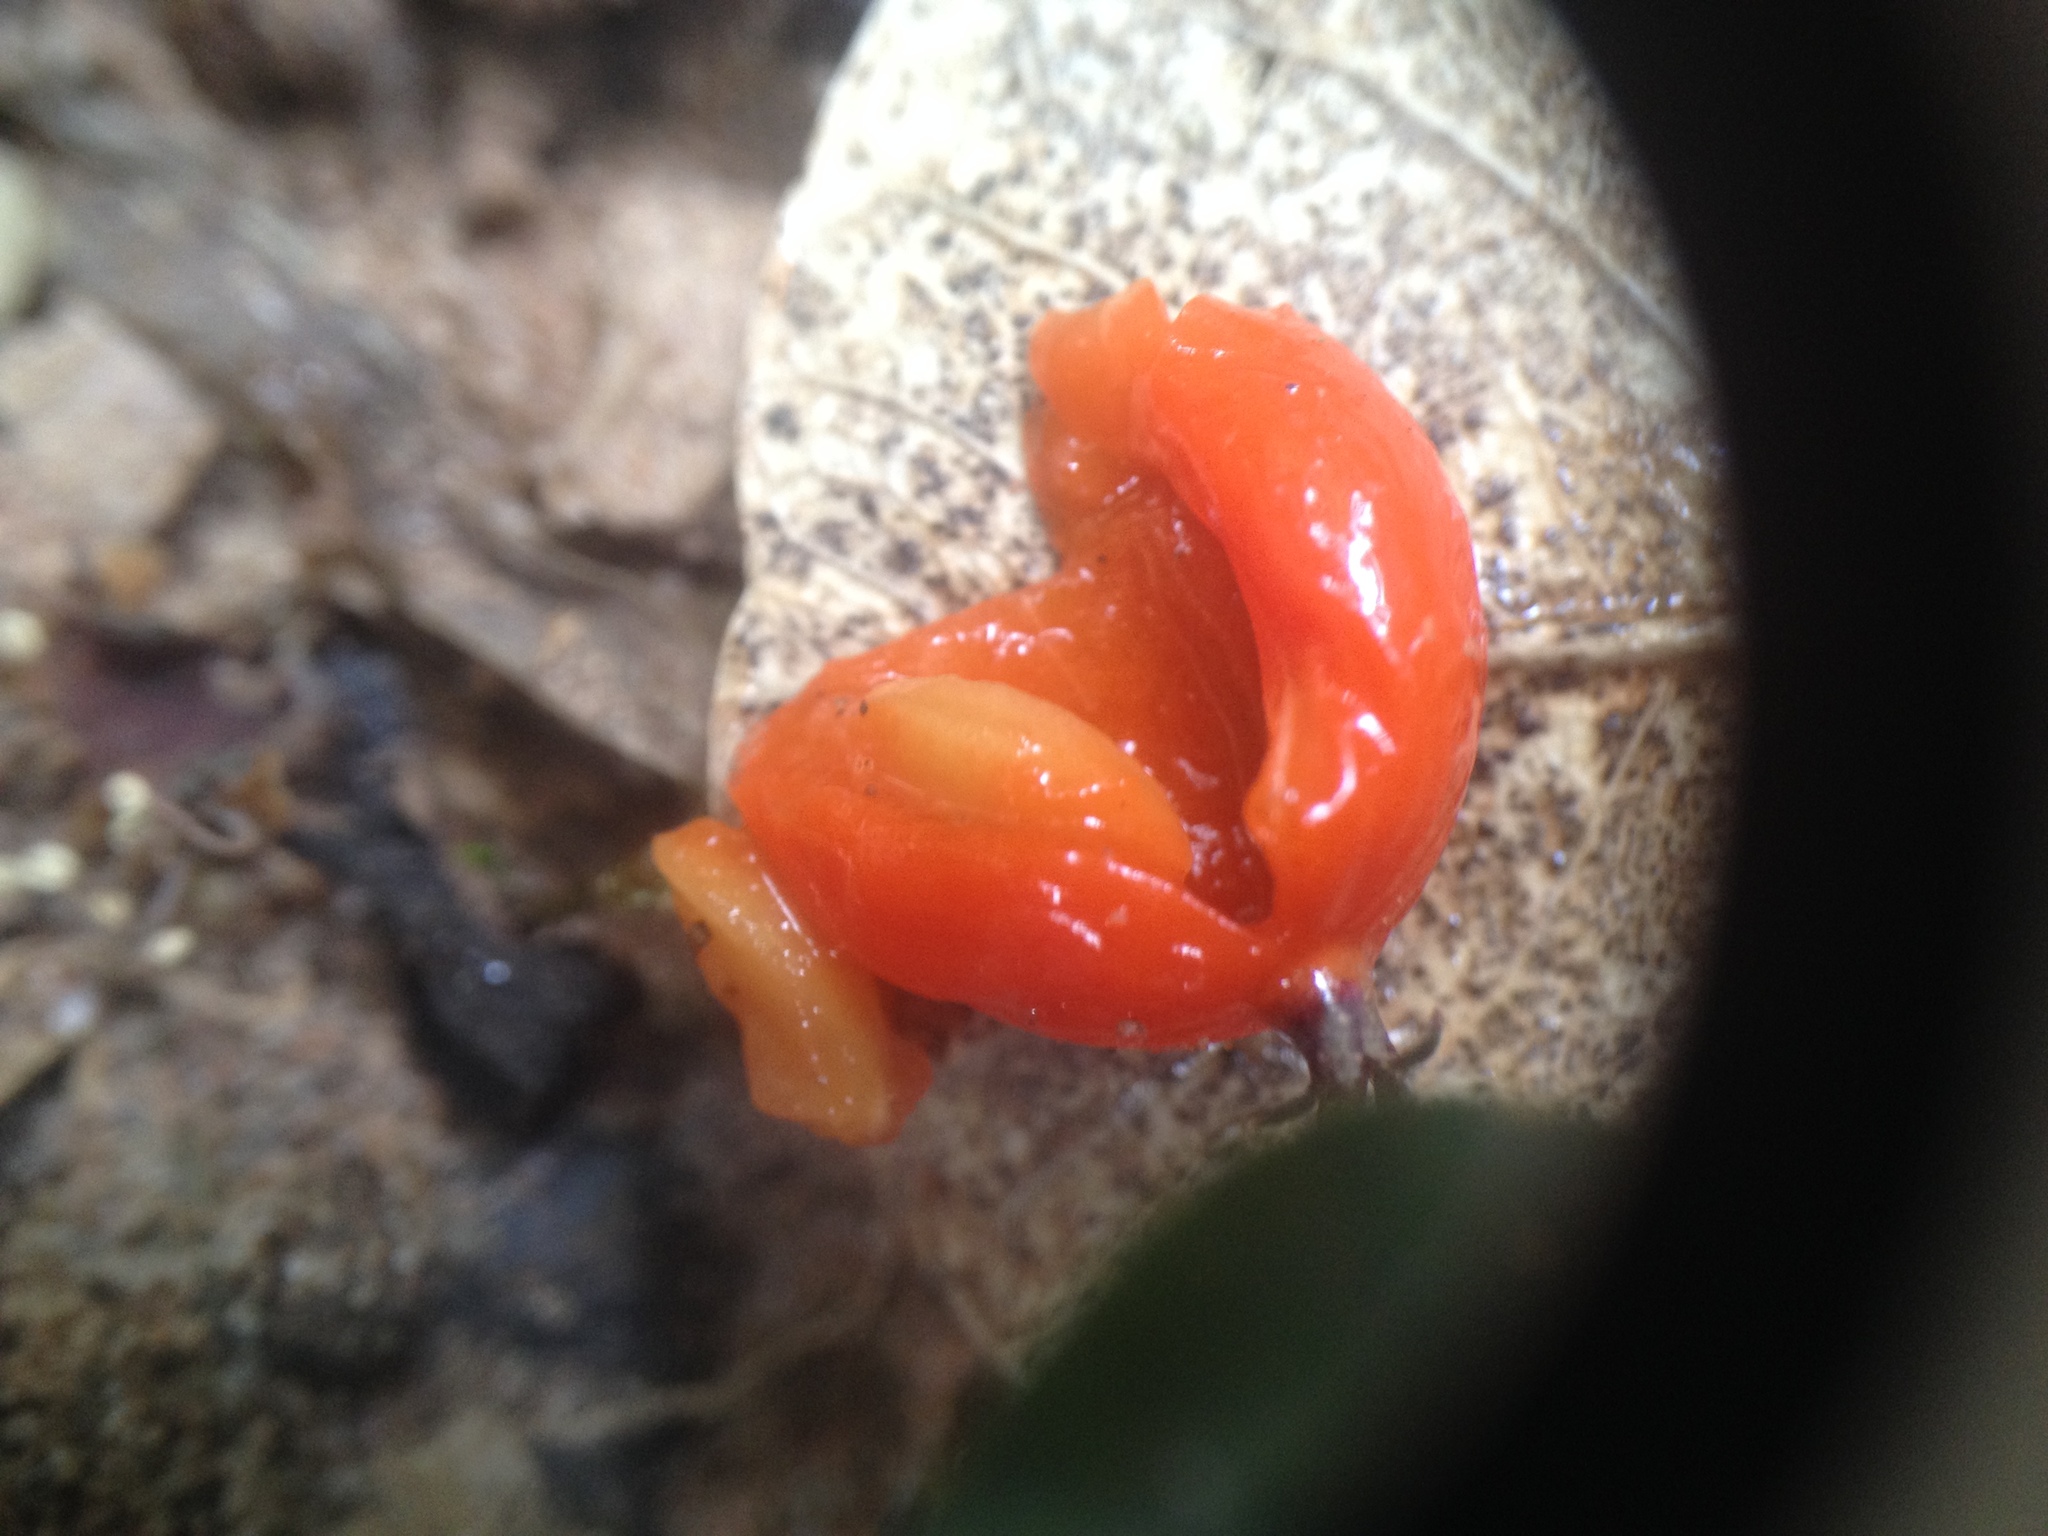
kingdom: Plantae
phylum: Tracheophyta
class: Magnoliopsida
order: Gentianales
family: Rubiaceae
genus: Geophila
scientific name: Geophila repens
